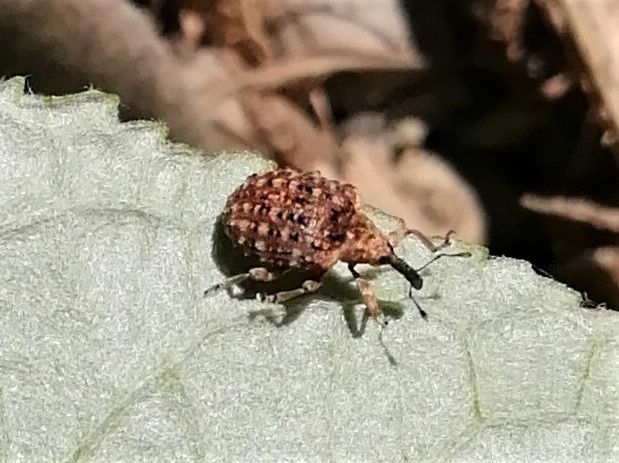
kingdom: Animalia
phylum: Arthropoda
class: Insecta
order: Coleoptera
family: Curculionidae
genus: Cleopus
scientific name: Cleopus japonicus
